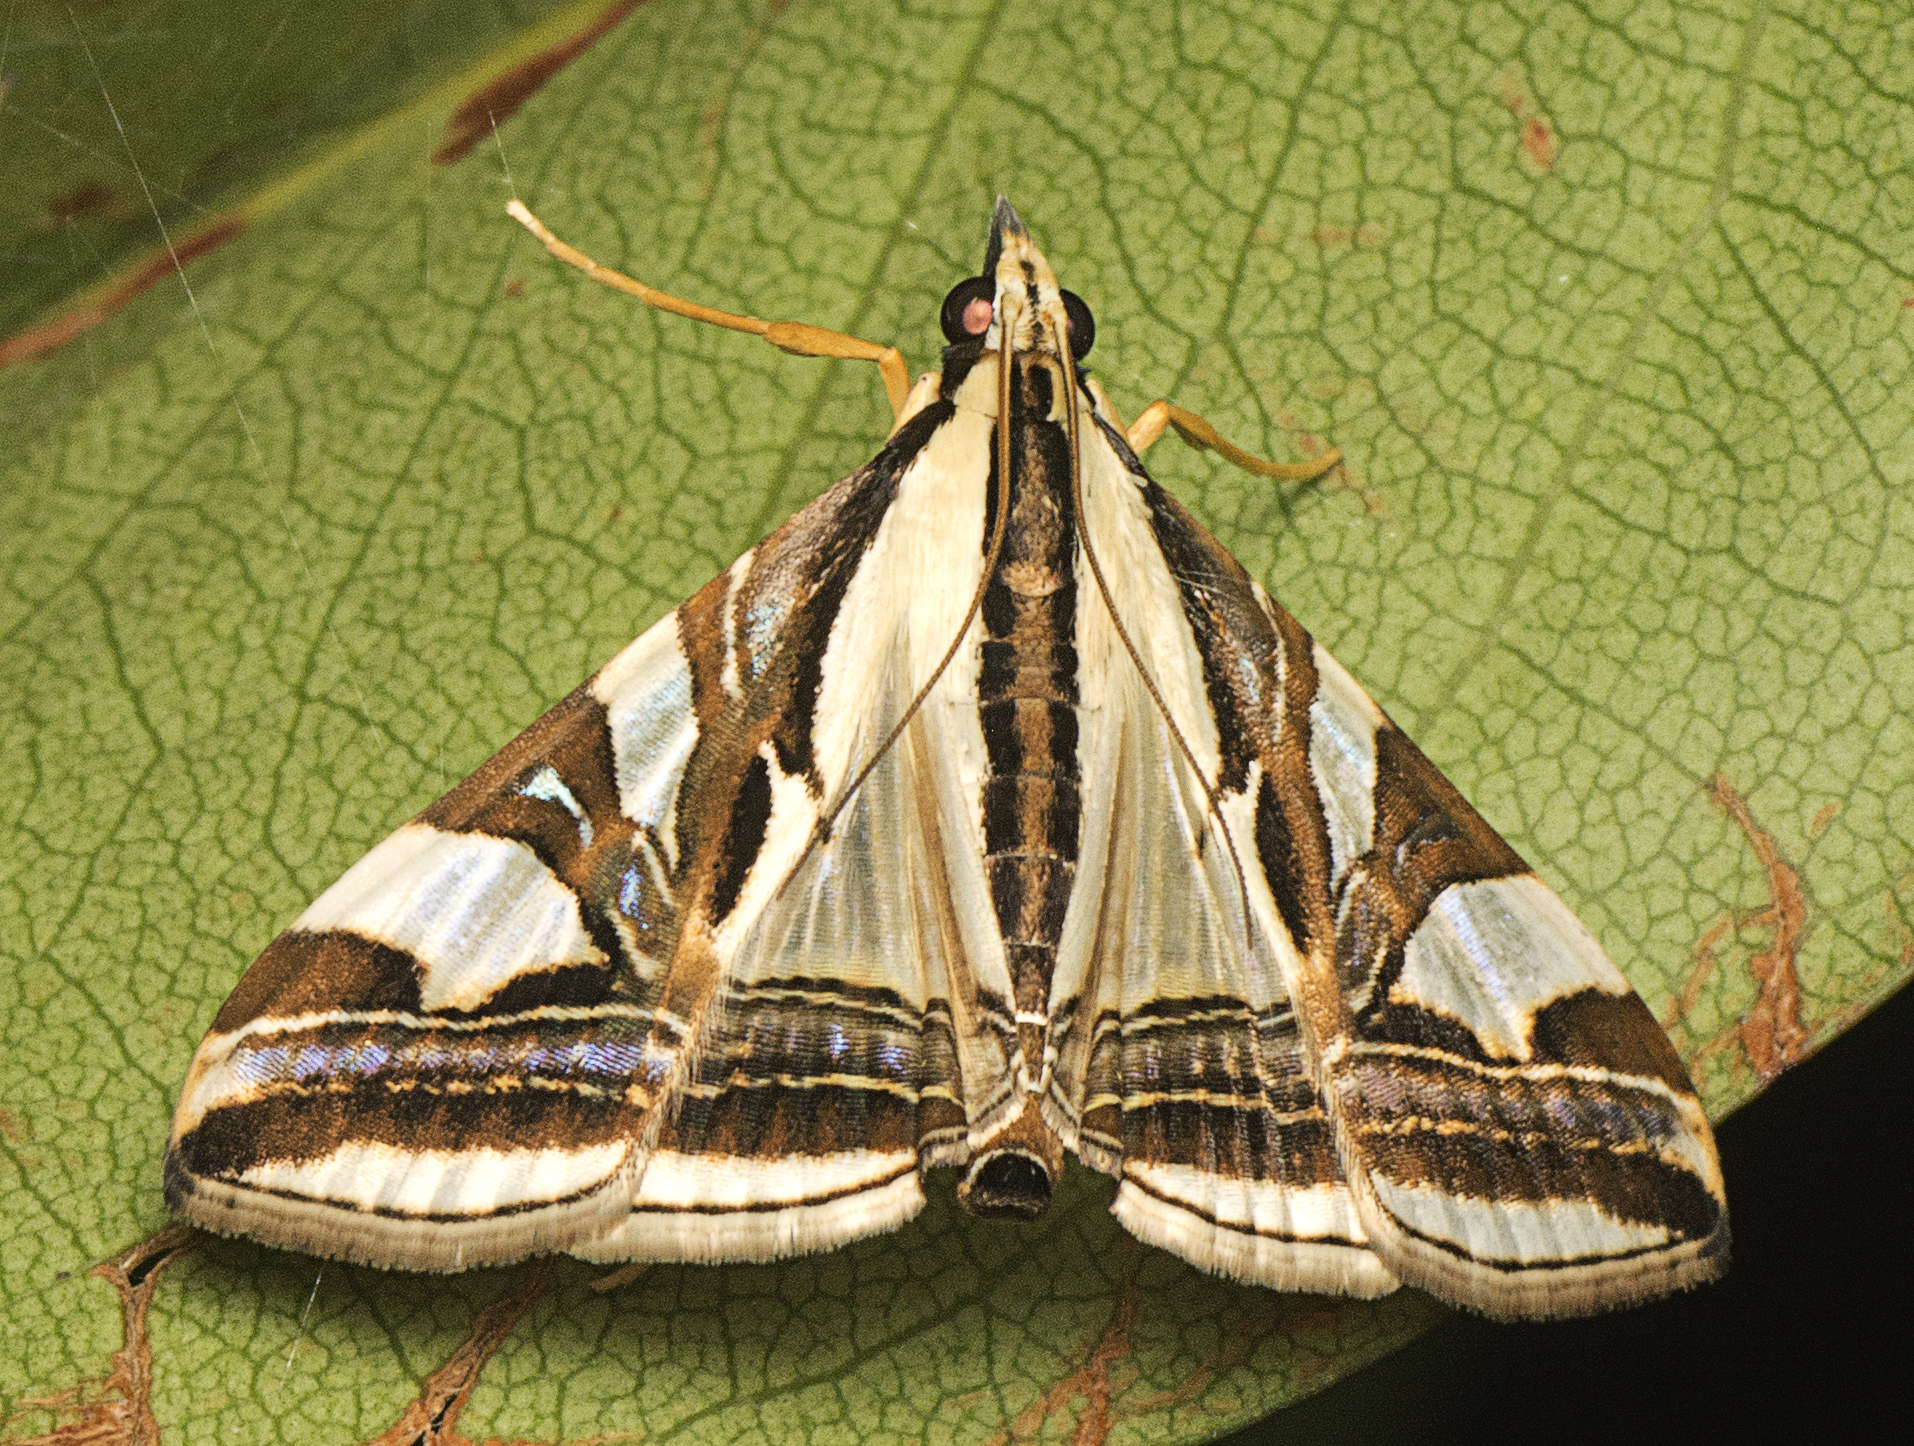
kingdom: Animalia
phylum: Arthropoda
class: Insecta
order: Lepidoptera
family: Crambidae
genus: Agrioglypta
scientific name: Agrioglypta excelsalis
